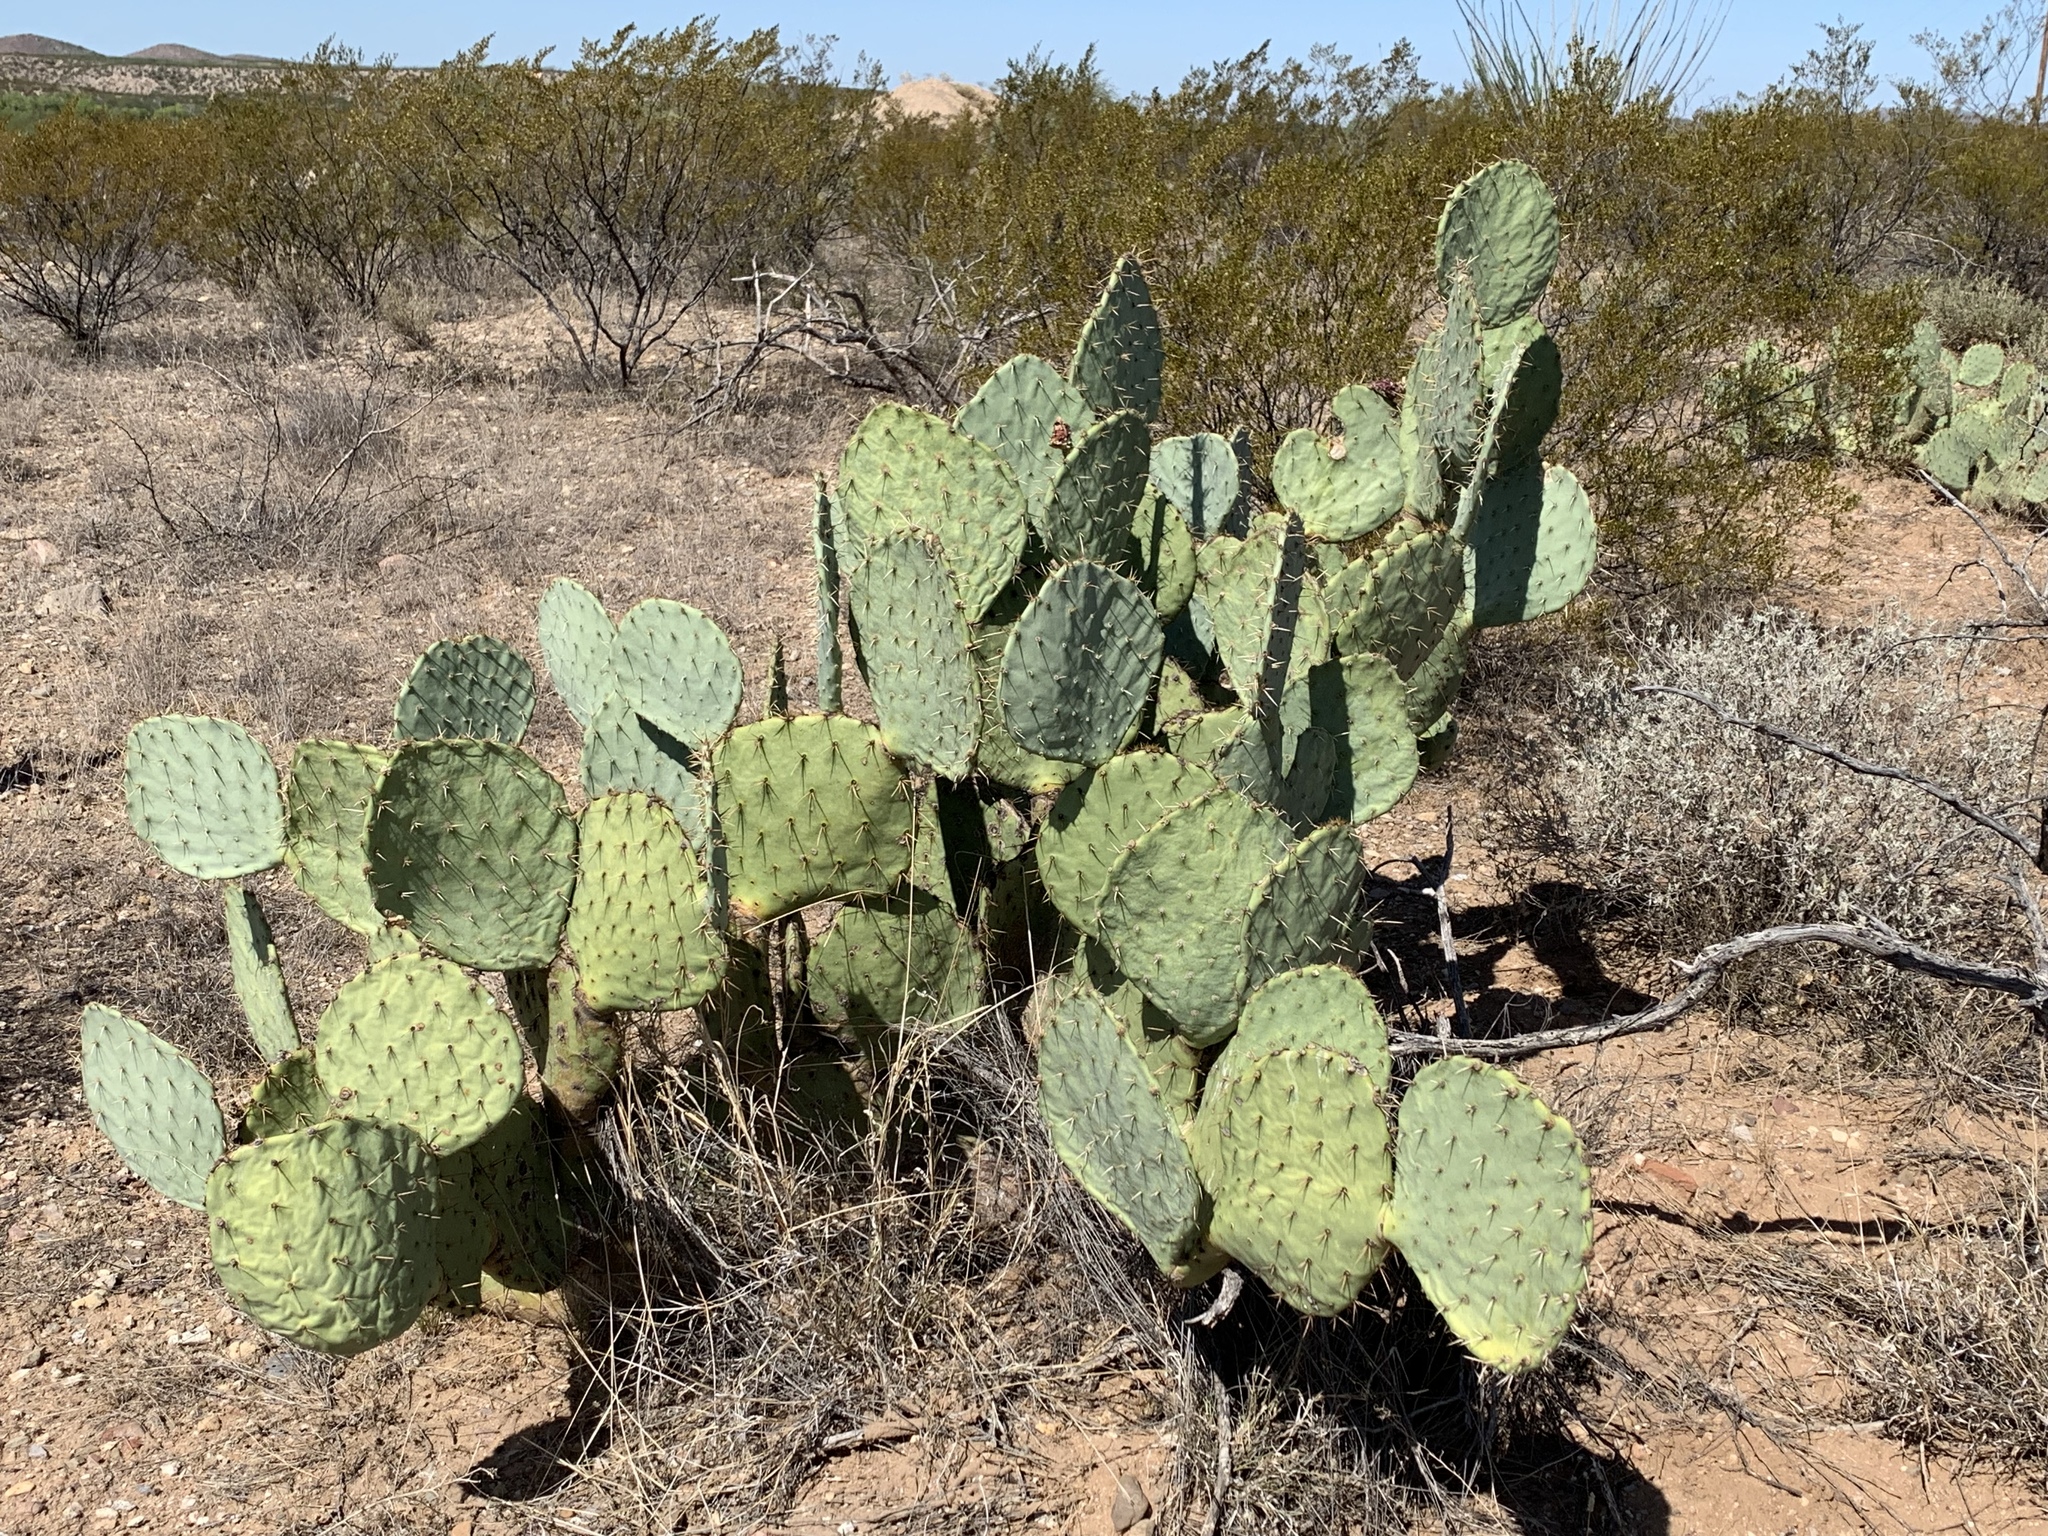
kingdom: Plantae
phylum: Tracheophyta
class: Magnoliopsida
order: Caryophyllales
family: Cactaceae
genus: Opuntia
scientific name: Opuntia engelmannii
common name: Cactus-apple
